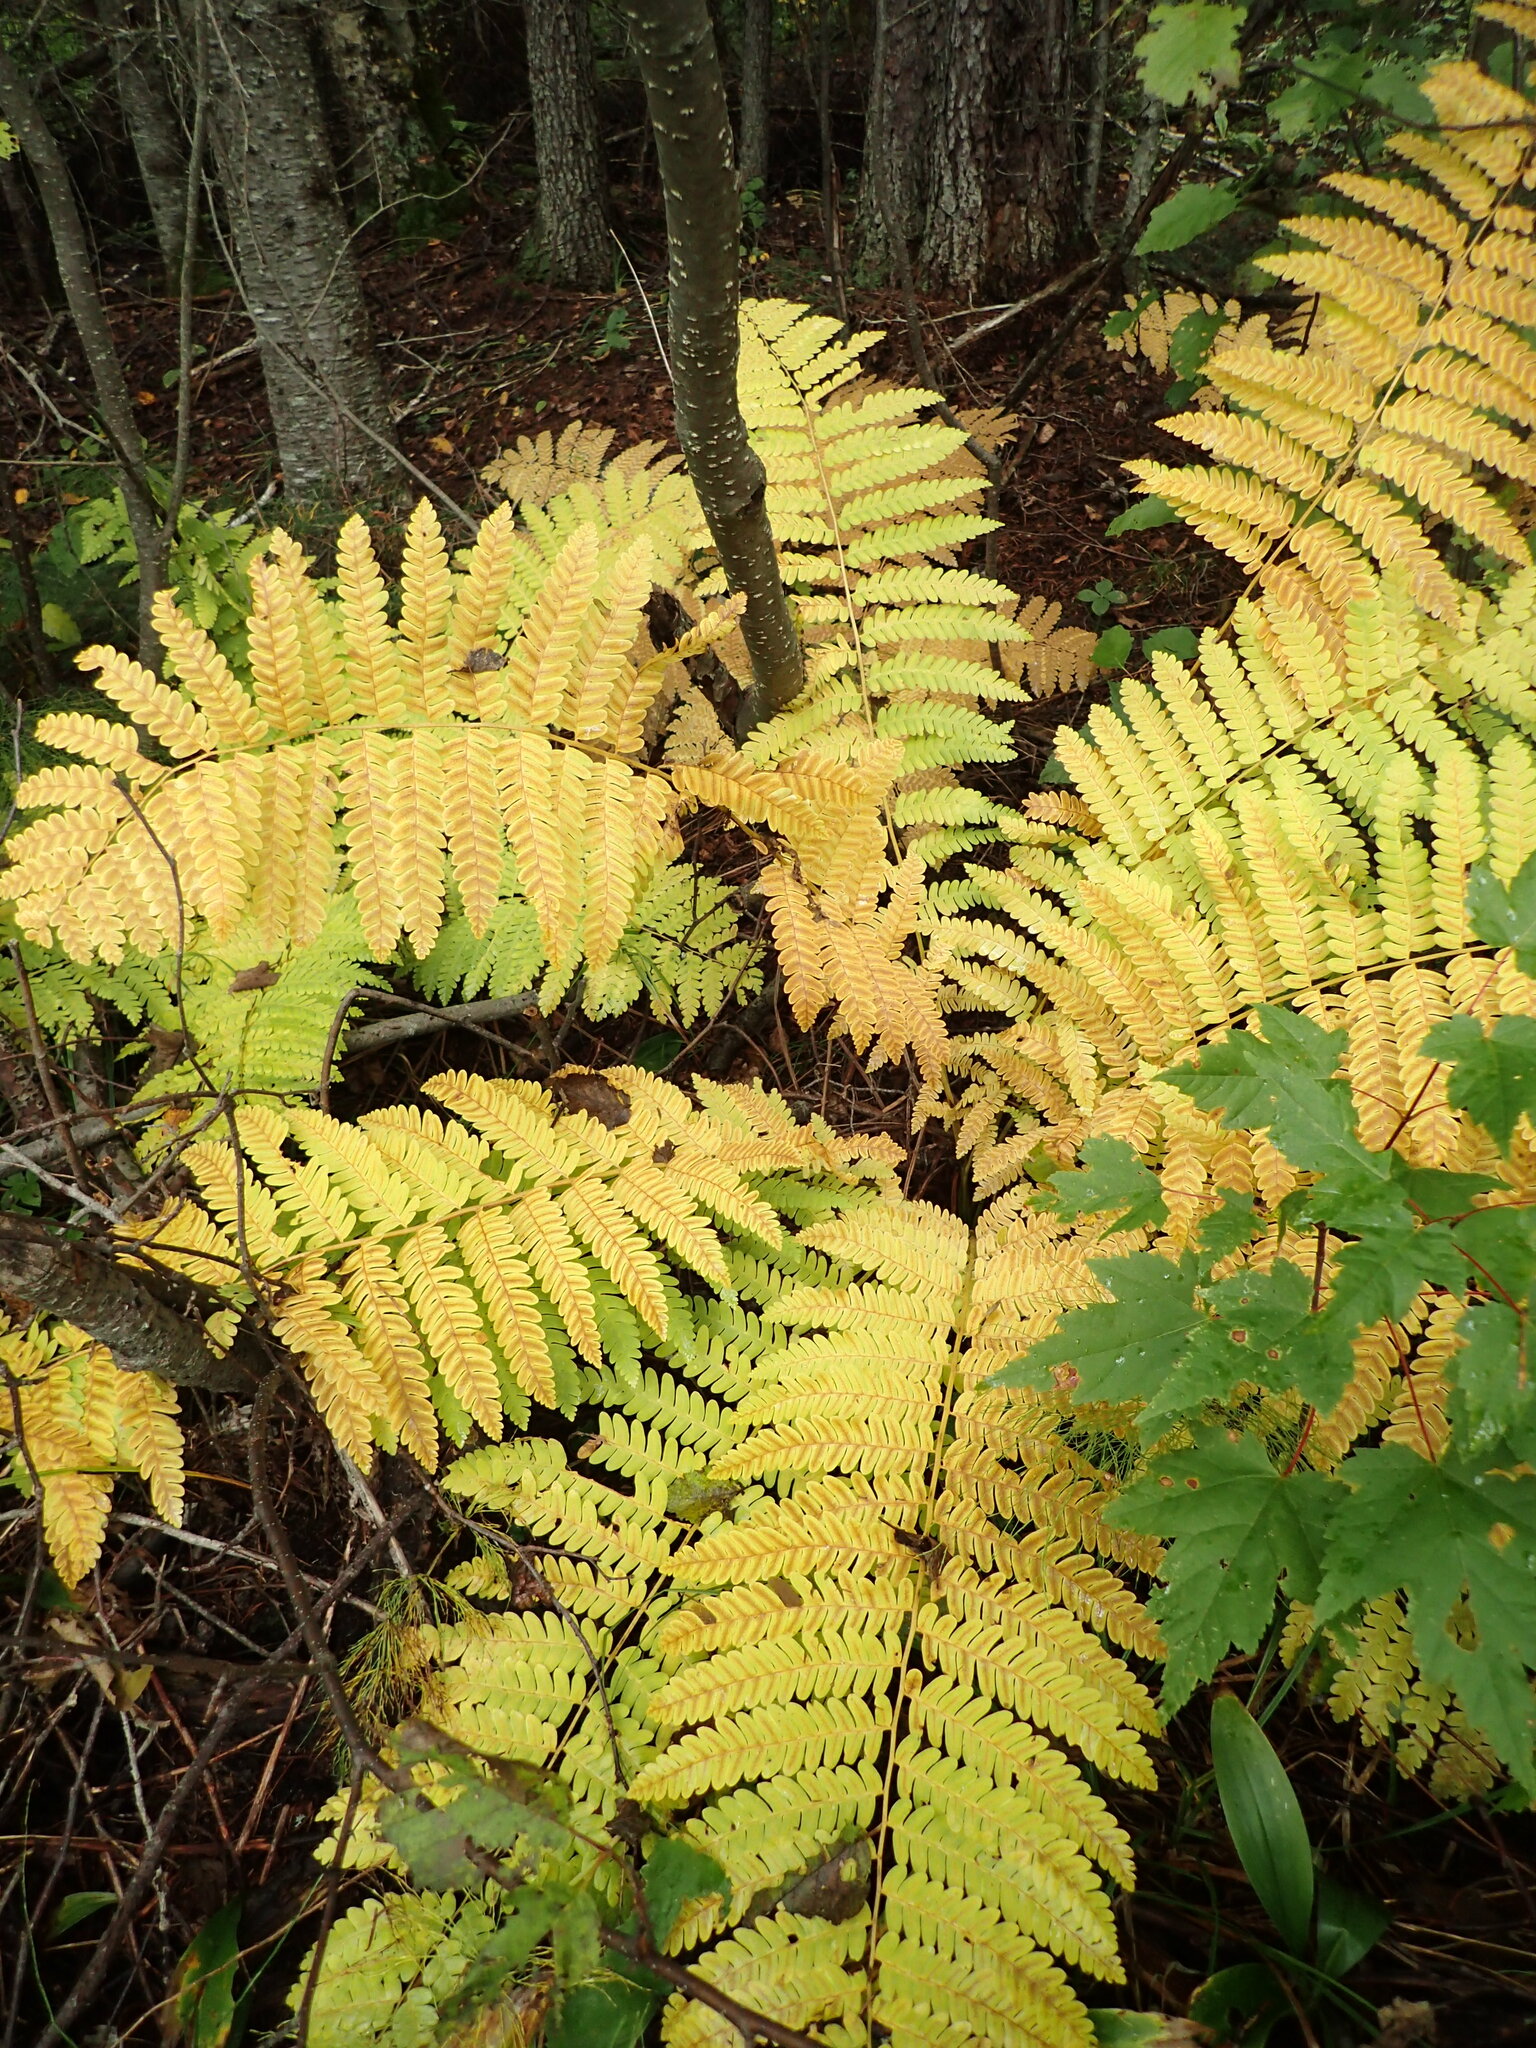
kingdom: Plantae
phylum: Tracheophyta
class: Polypodiopsida
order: Osmundales
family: Osmundaceae
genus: Claytosmunda
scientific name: Claytosmunda claytoniana
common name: Clayton's fern
